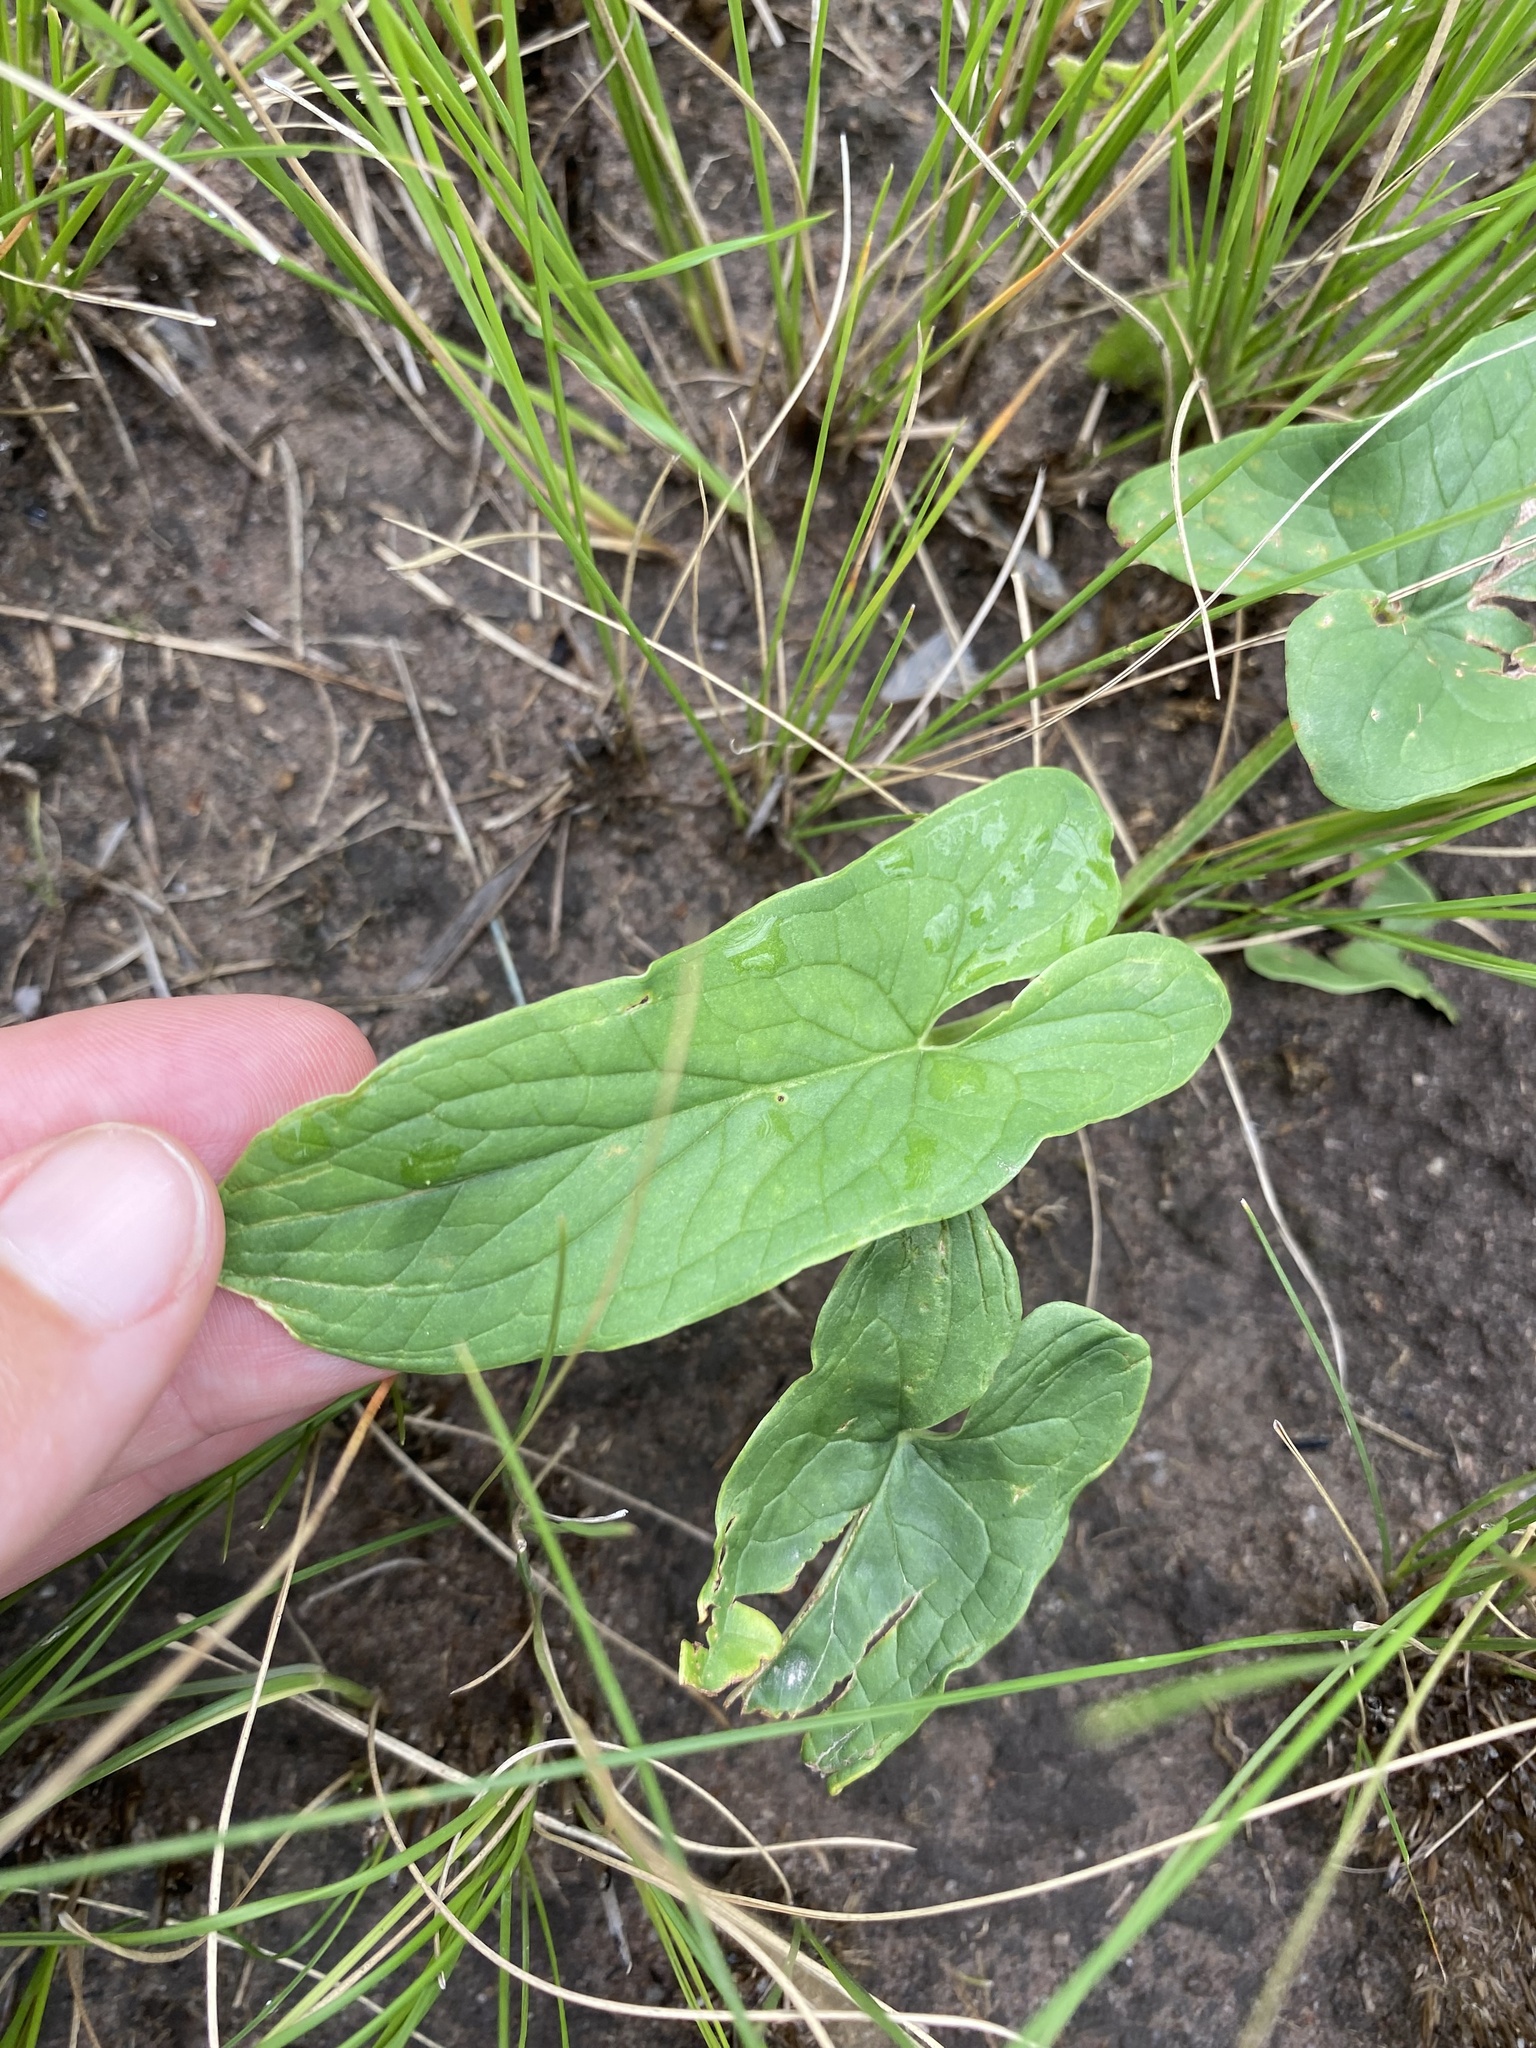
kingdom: Plantae
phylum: Tracheophyta
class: Liliopsida
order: Alismatales
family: Araceae
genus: Stylochaeton
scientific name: Stylochaeton natalensis
